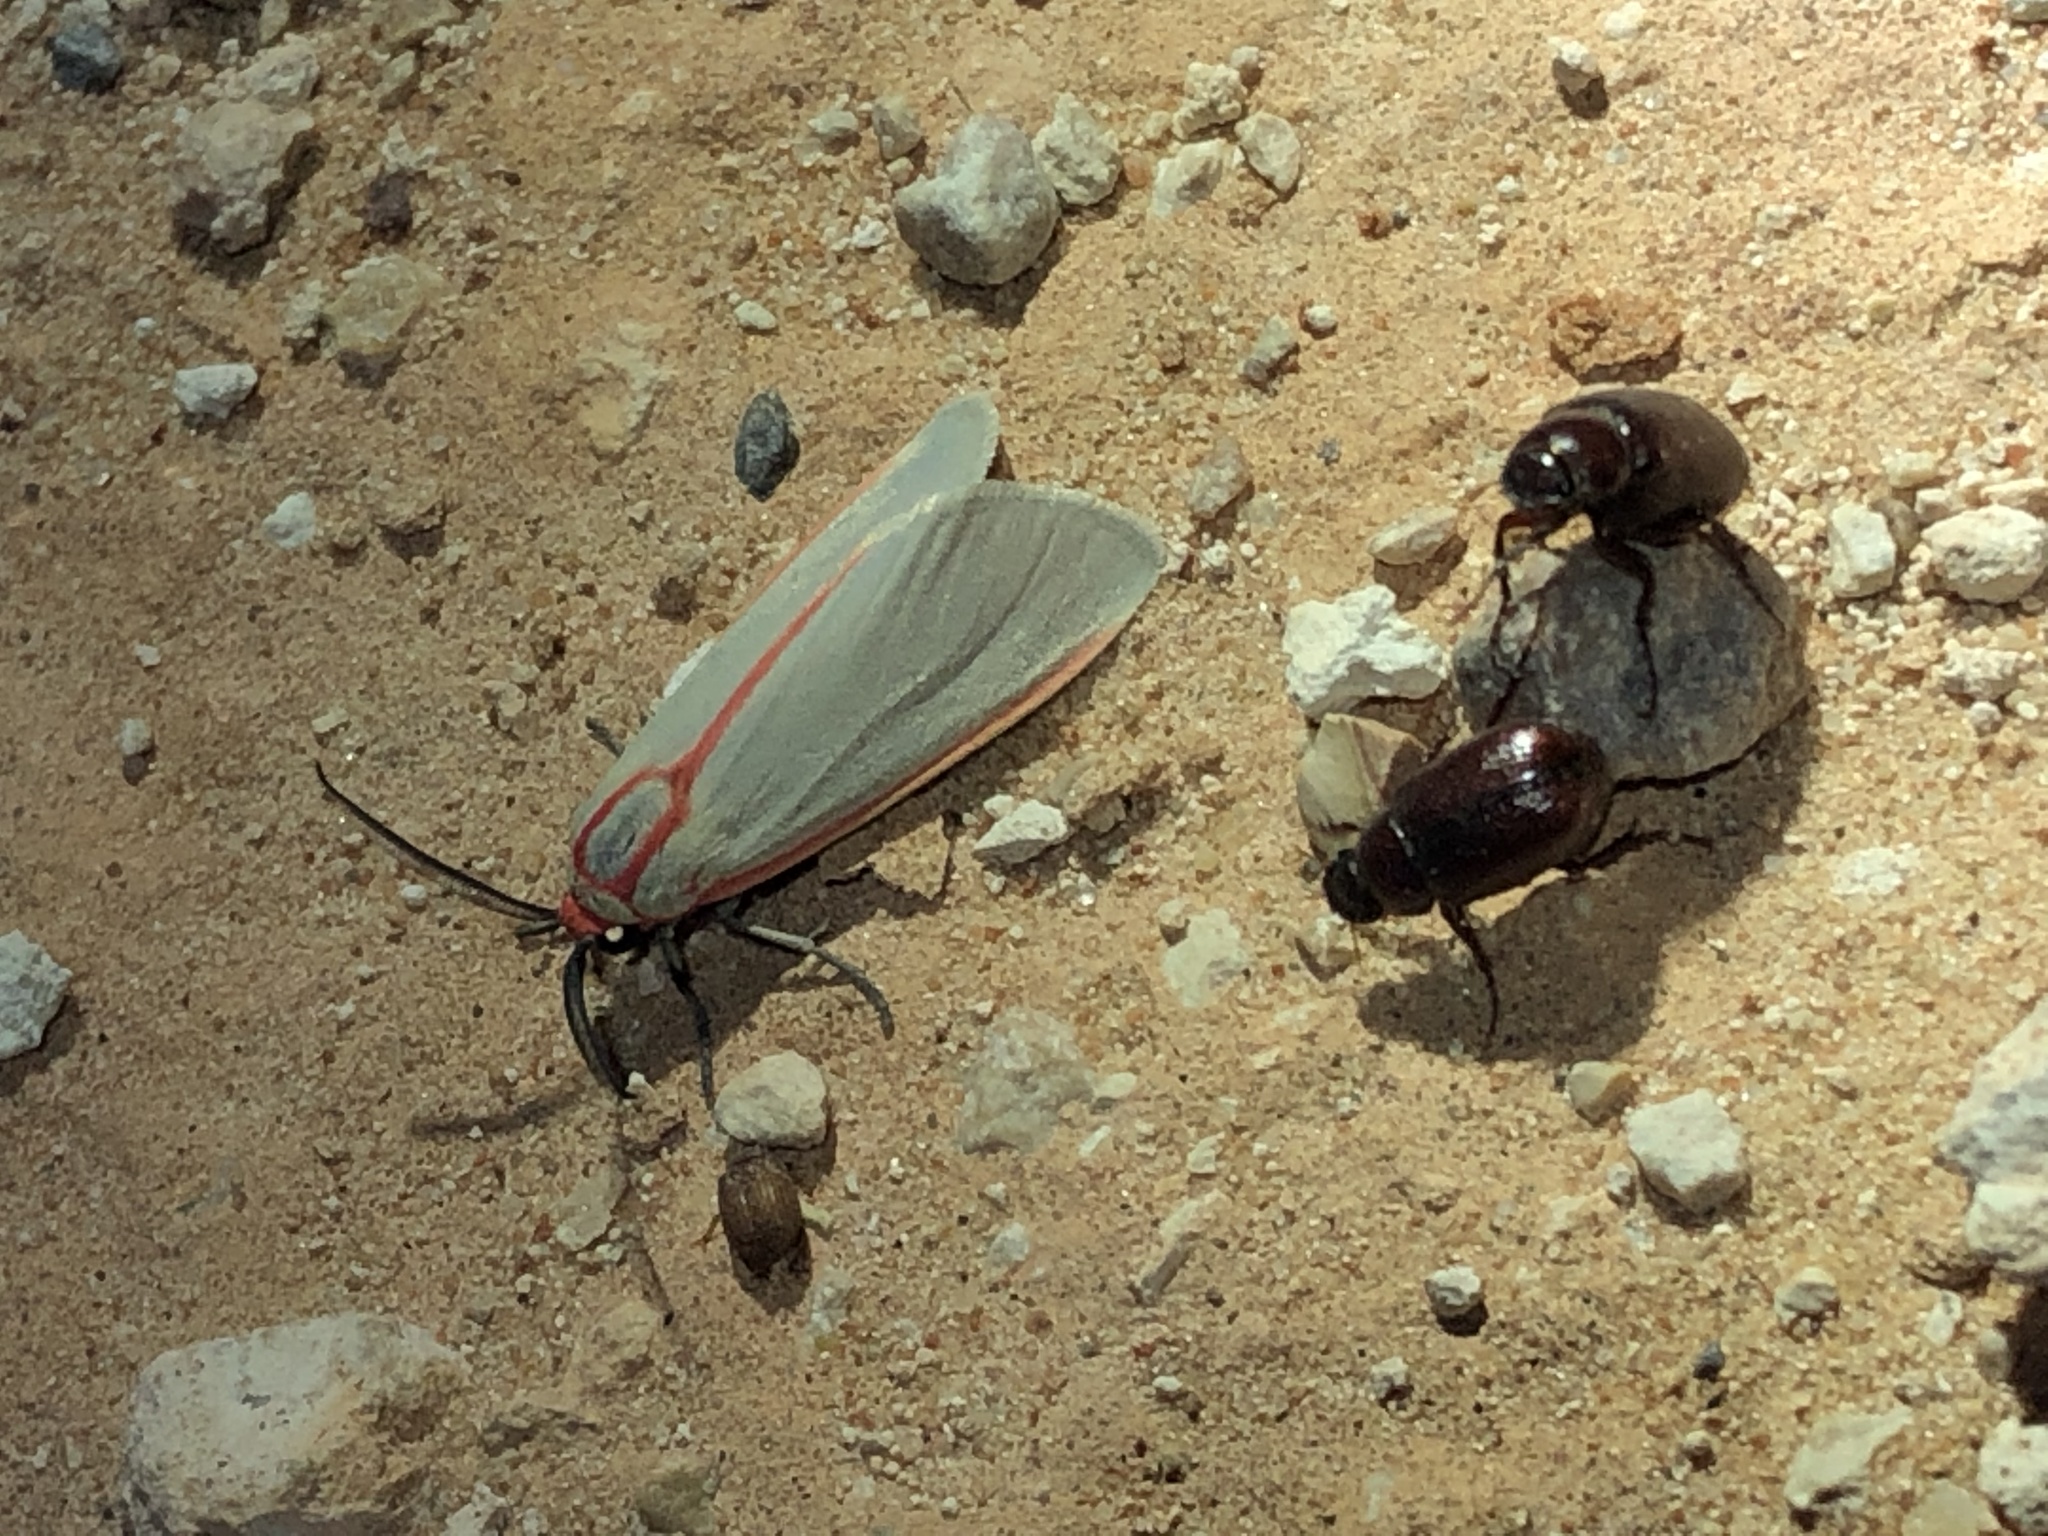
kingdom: Animalia
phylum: Arthropoda
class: Insecta
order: Lepidoptera
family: Erebidae
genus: Pygarctia
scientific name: Pygarctia spraguei
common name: Sprague's pygarctica
